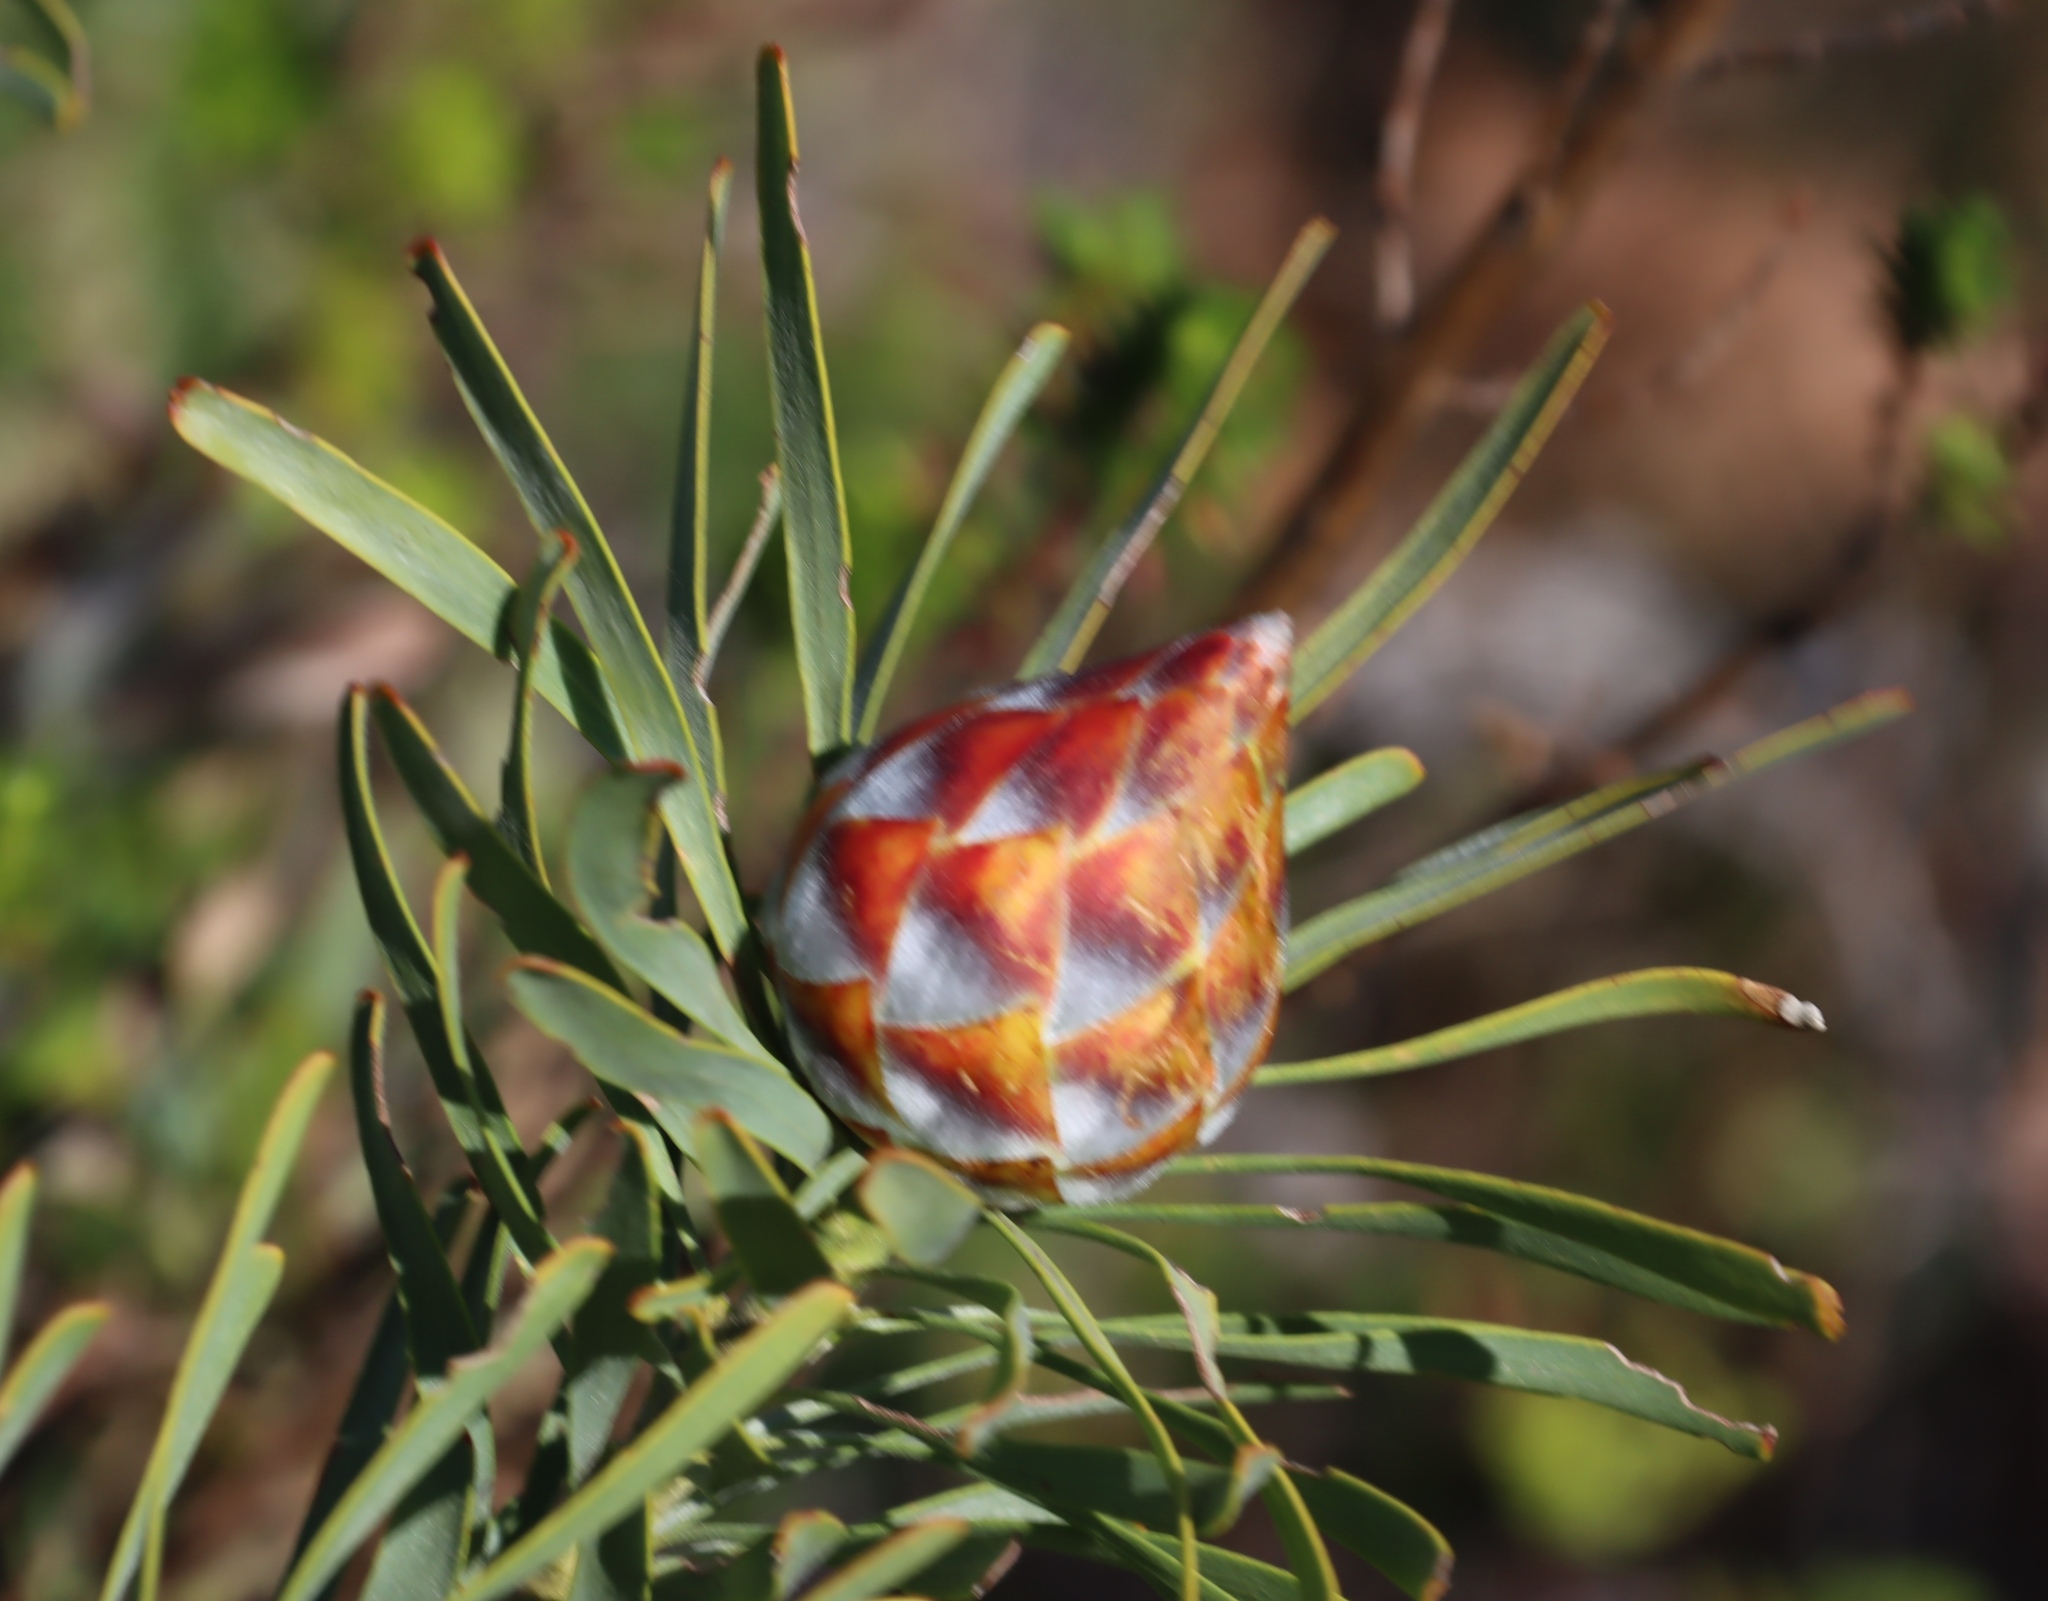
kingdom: Plantae
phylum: Tracheophyta
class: Magnoliopsida
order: Proteales
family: Proteaceae
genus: Leucadendron
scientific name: Leucadendron rubrum
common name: Spinning top
